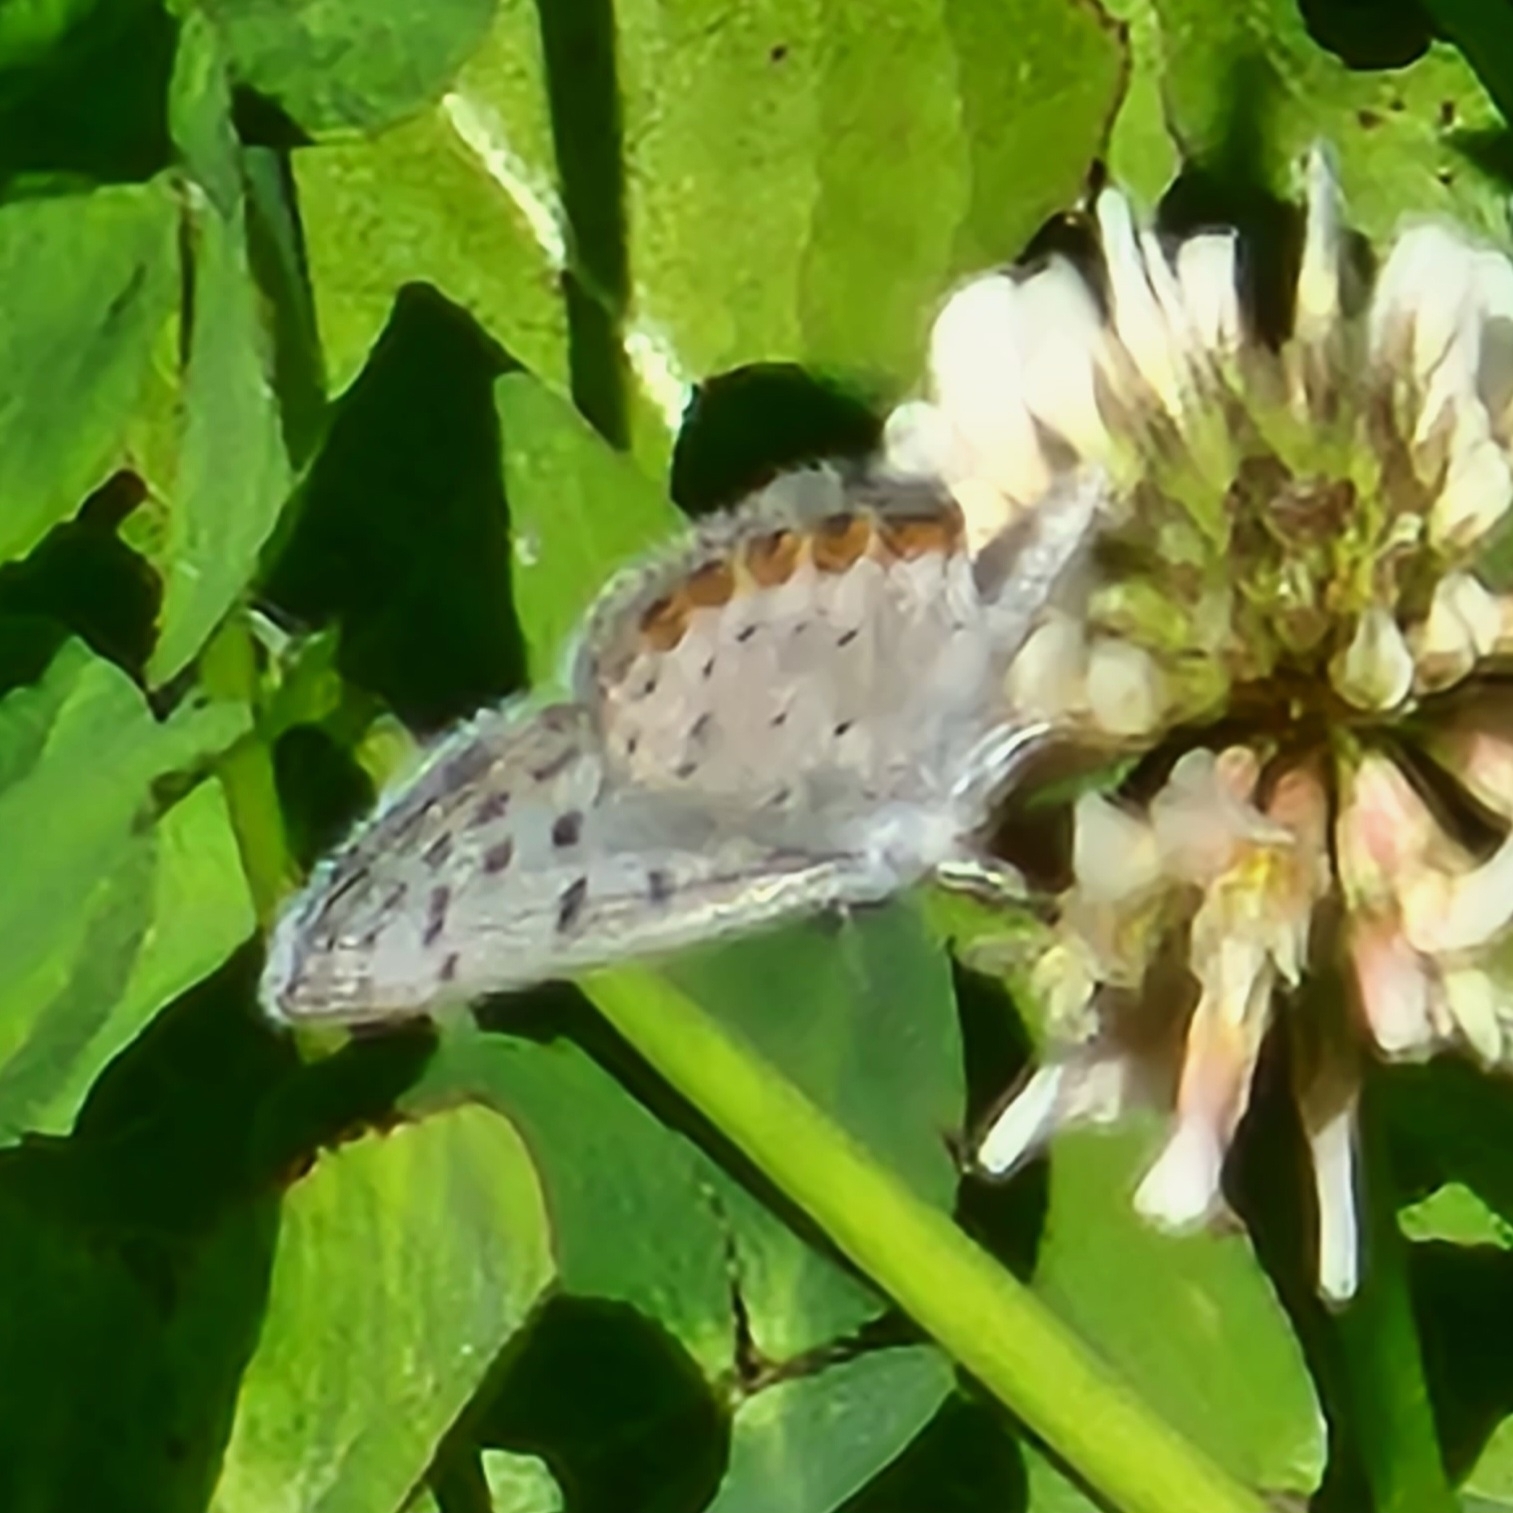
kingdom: Animalia
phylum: Arthropoda
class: Insecta
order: Lepidoptera
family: Lycaenidae
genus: Icaricia
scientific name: Icaricia acmon
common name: Acmon blue
